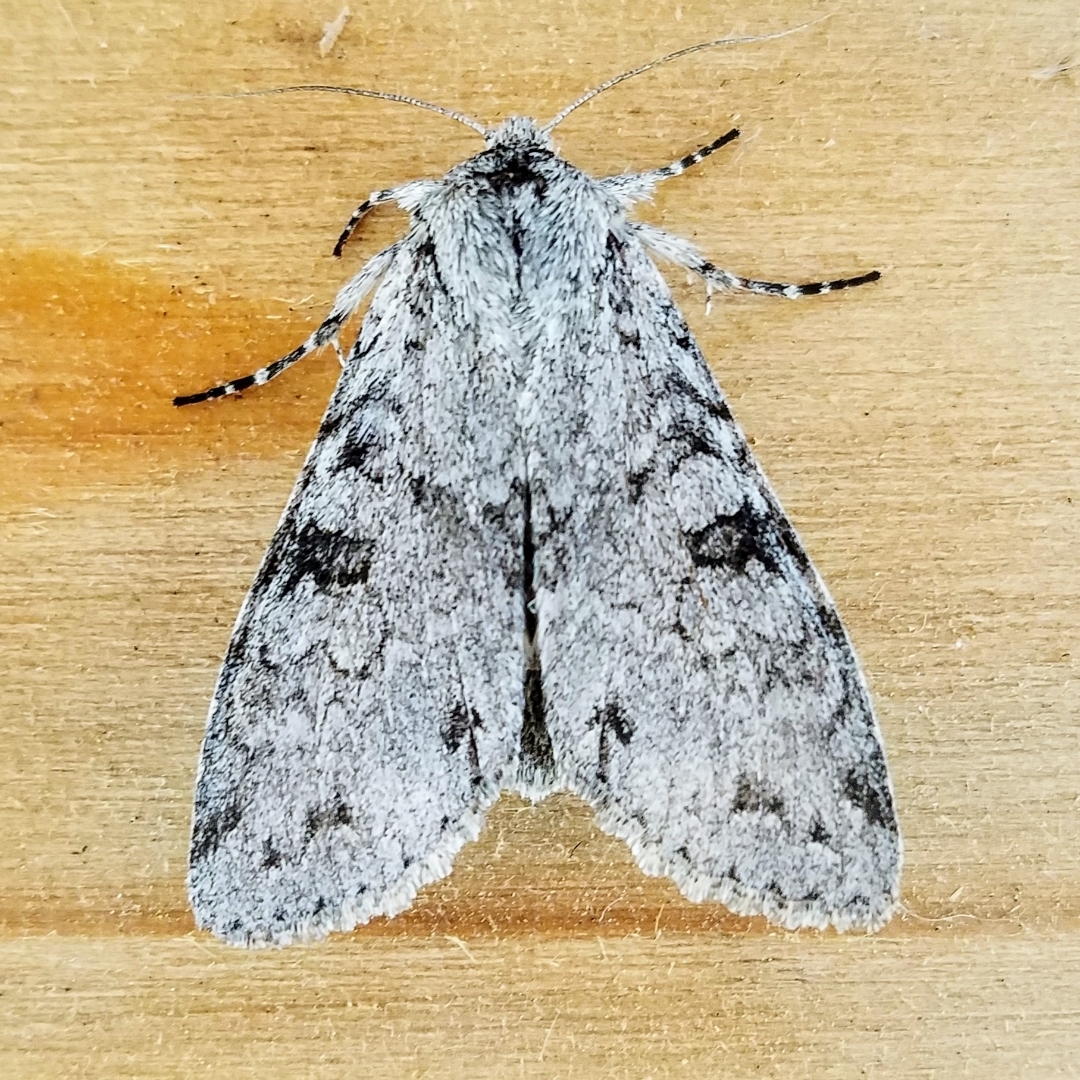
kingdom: Animalia
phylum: Arthropoda
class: Insecta
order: Lepidoptera
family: Noctuidae
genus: Polia
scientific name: Polia piniae
